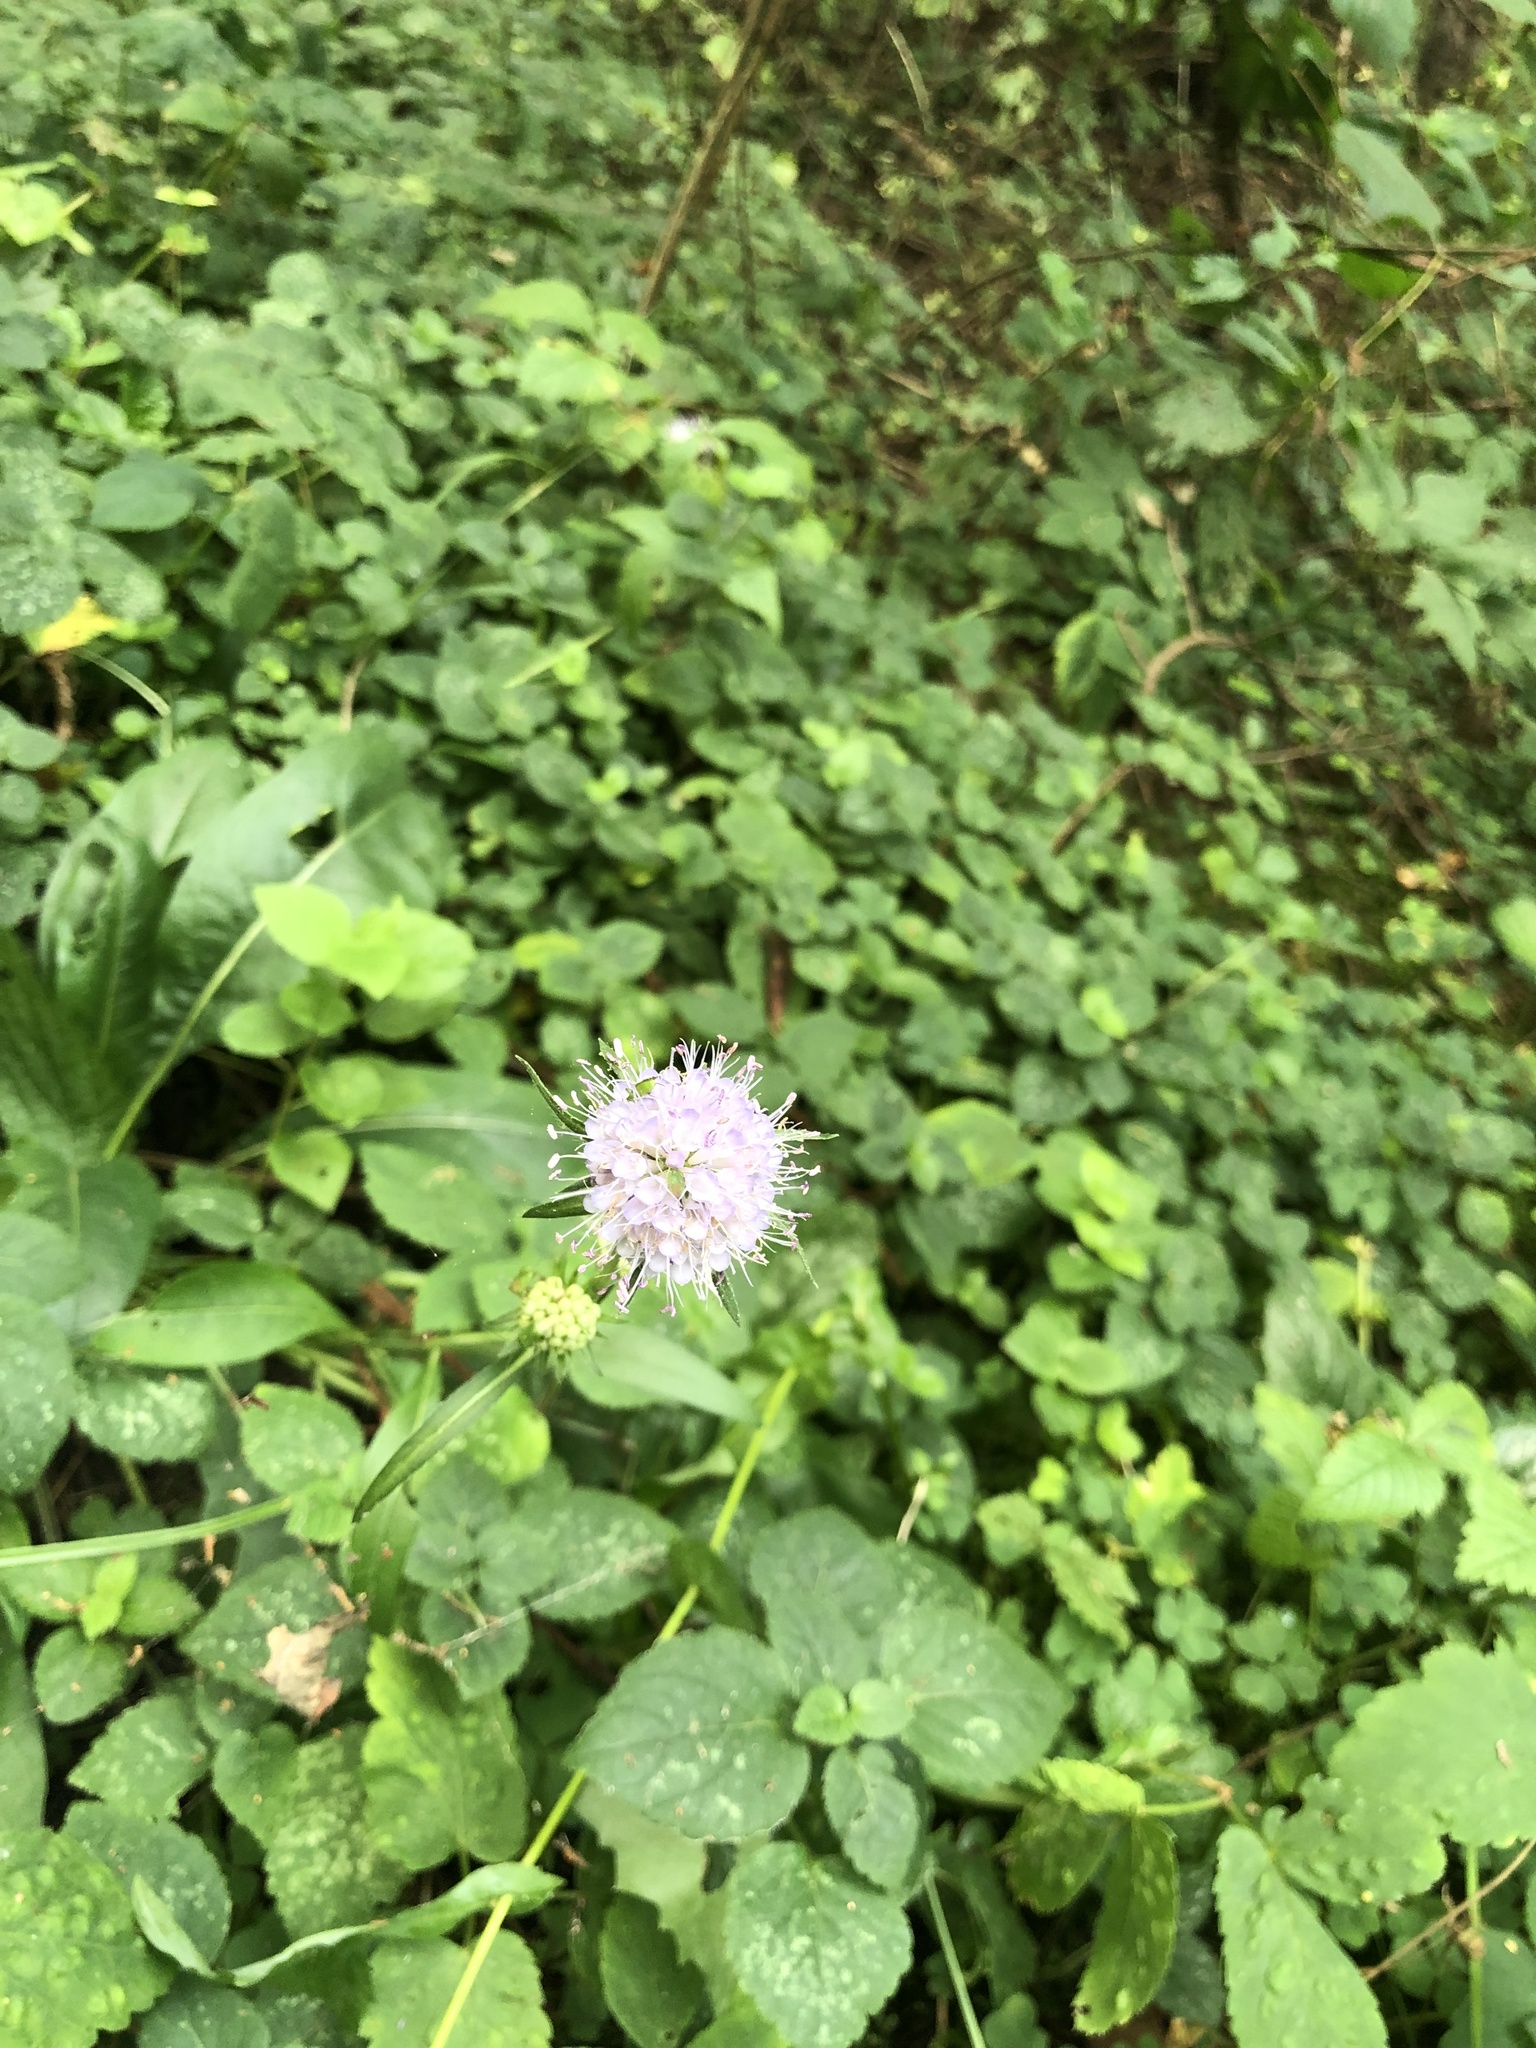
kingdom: Plantae
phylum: Tracheophyta
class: Magnoliopsida
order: Dipsacales
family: Caprifoliaceae
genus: Succisa
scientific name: Succisa pratensis
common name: Devil's-bit
